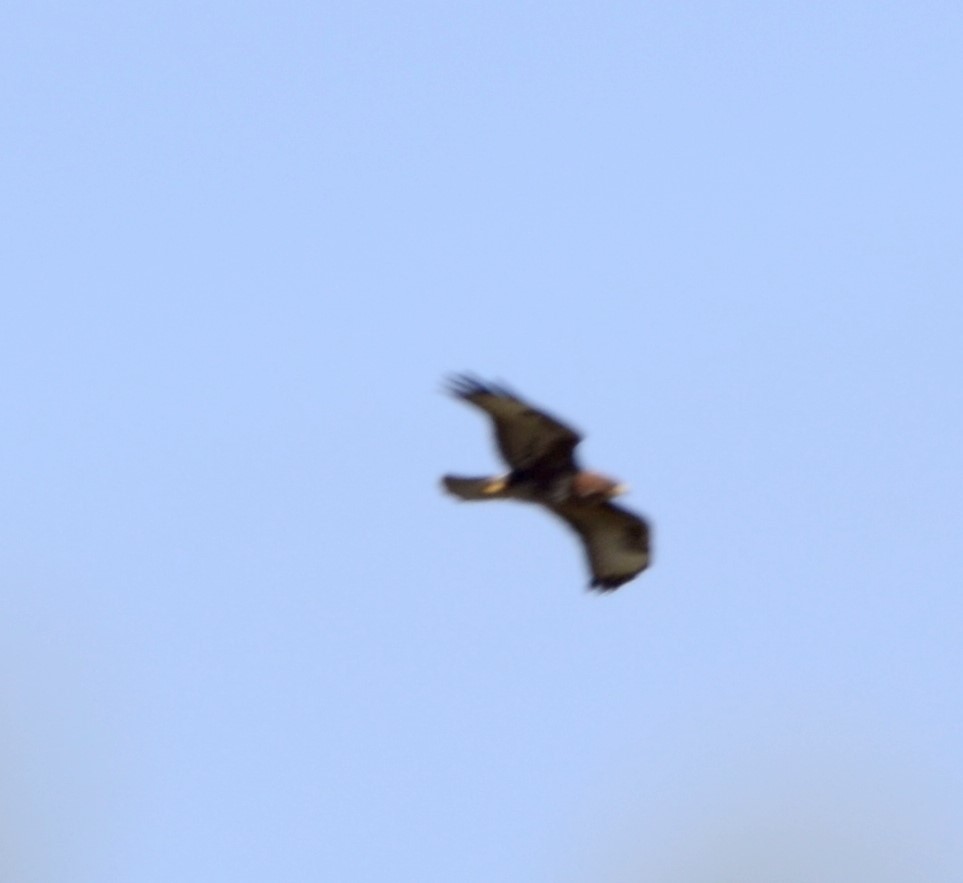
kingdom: Animalia
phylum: Chordata
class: Aves
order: Accipitriformes
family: Accipitridae
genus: Buteo
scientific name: Buteo buteo
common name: Common buzzard
